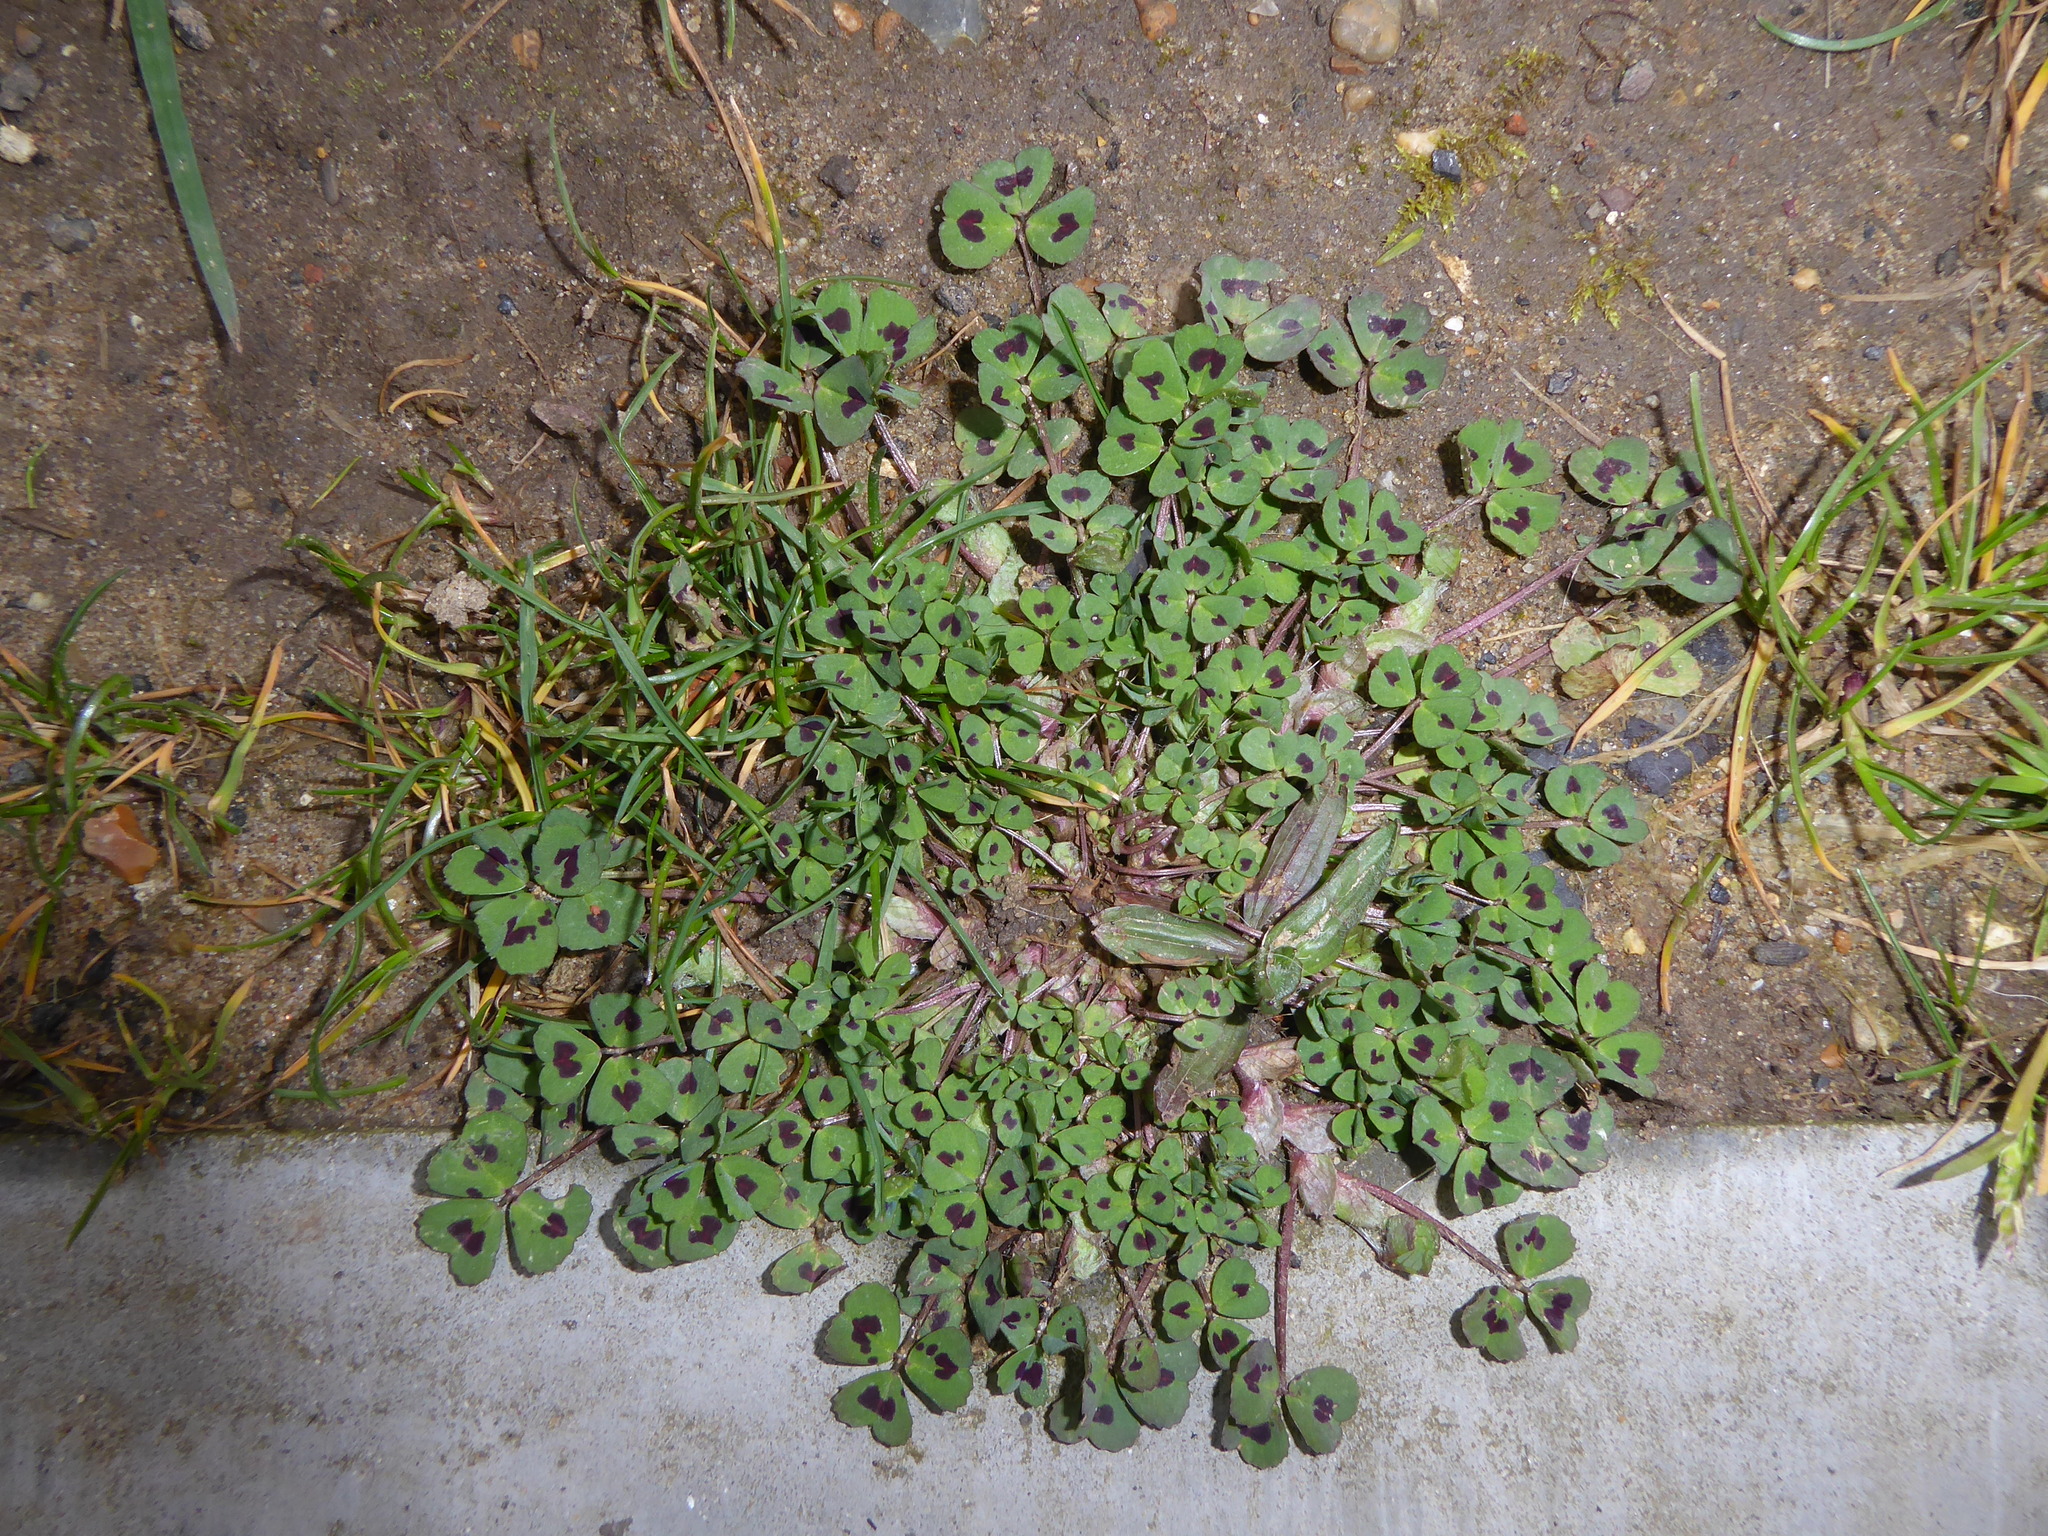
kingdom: Plantae
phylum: Tracheophyta
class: Magnoliopsida
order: Fabales
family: Fabaceae
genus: Medicago
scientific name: Medicago arabica
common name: Spotted medick
